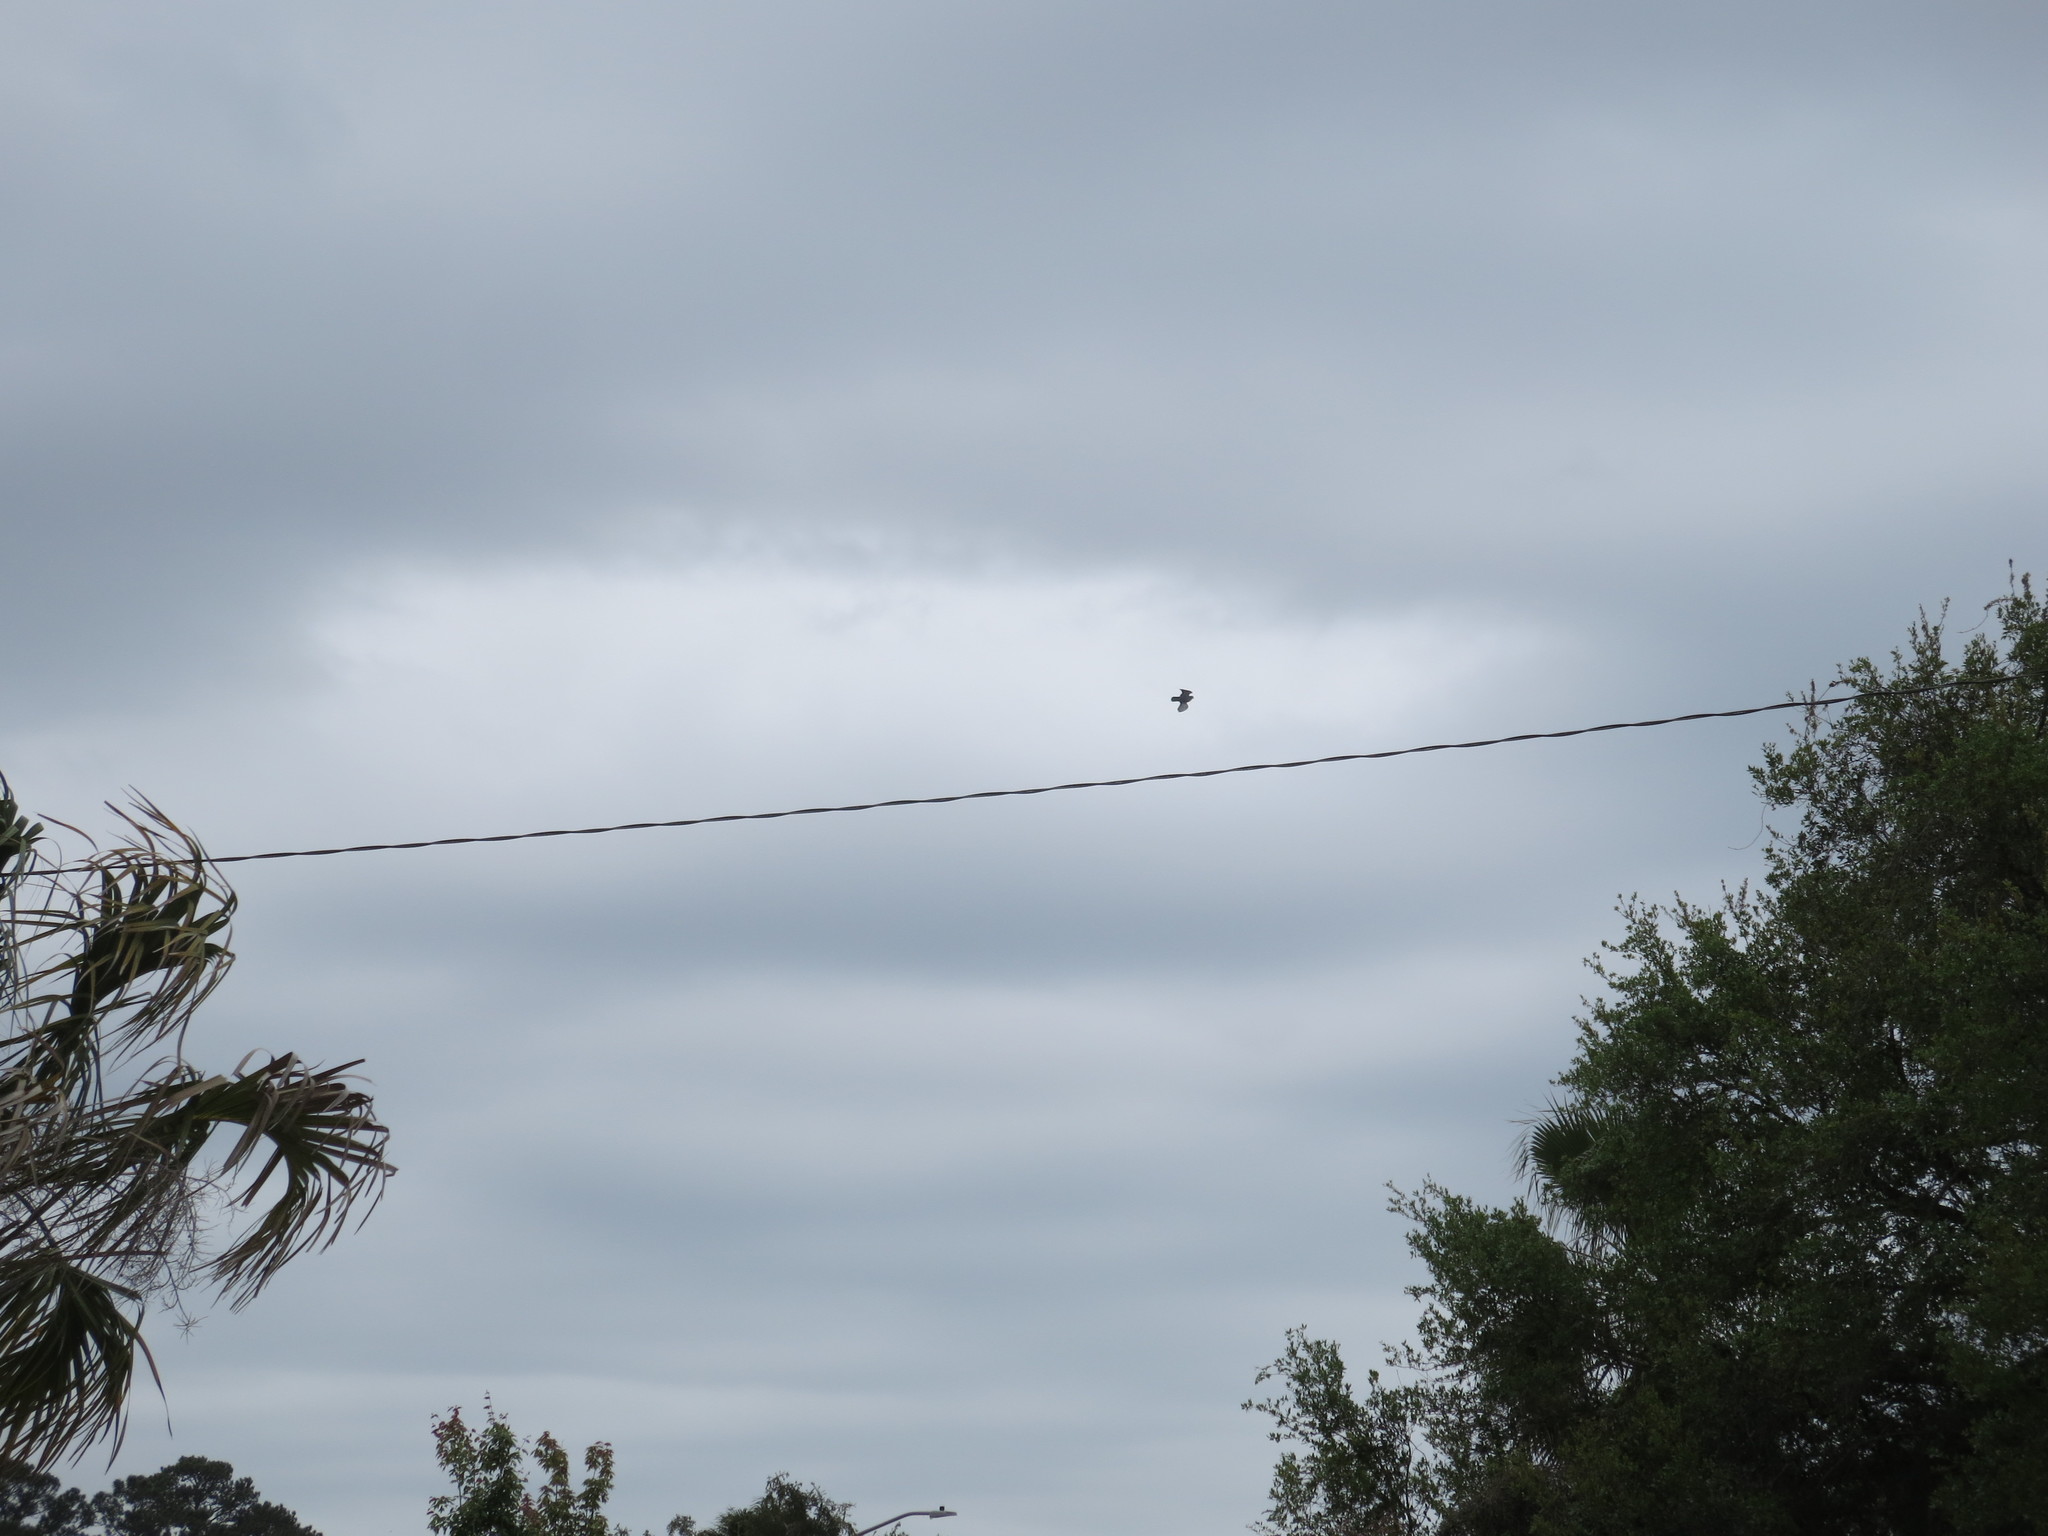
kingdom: Animalia
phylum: Chordata
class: Aves
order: Columbiformes
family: Columbidae
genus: Columba
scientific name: Columba livia
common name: Rock pigeon
